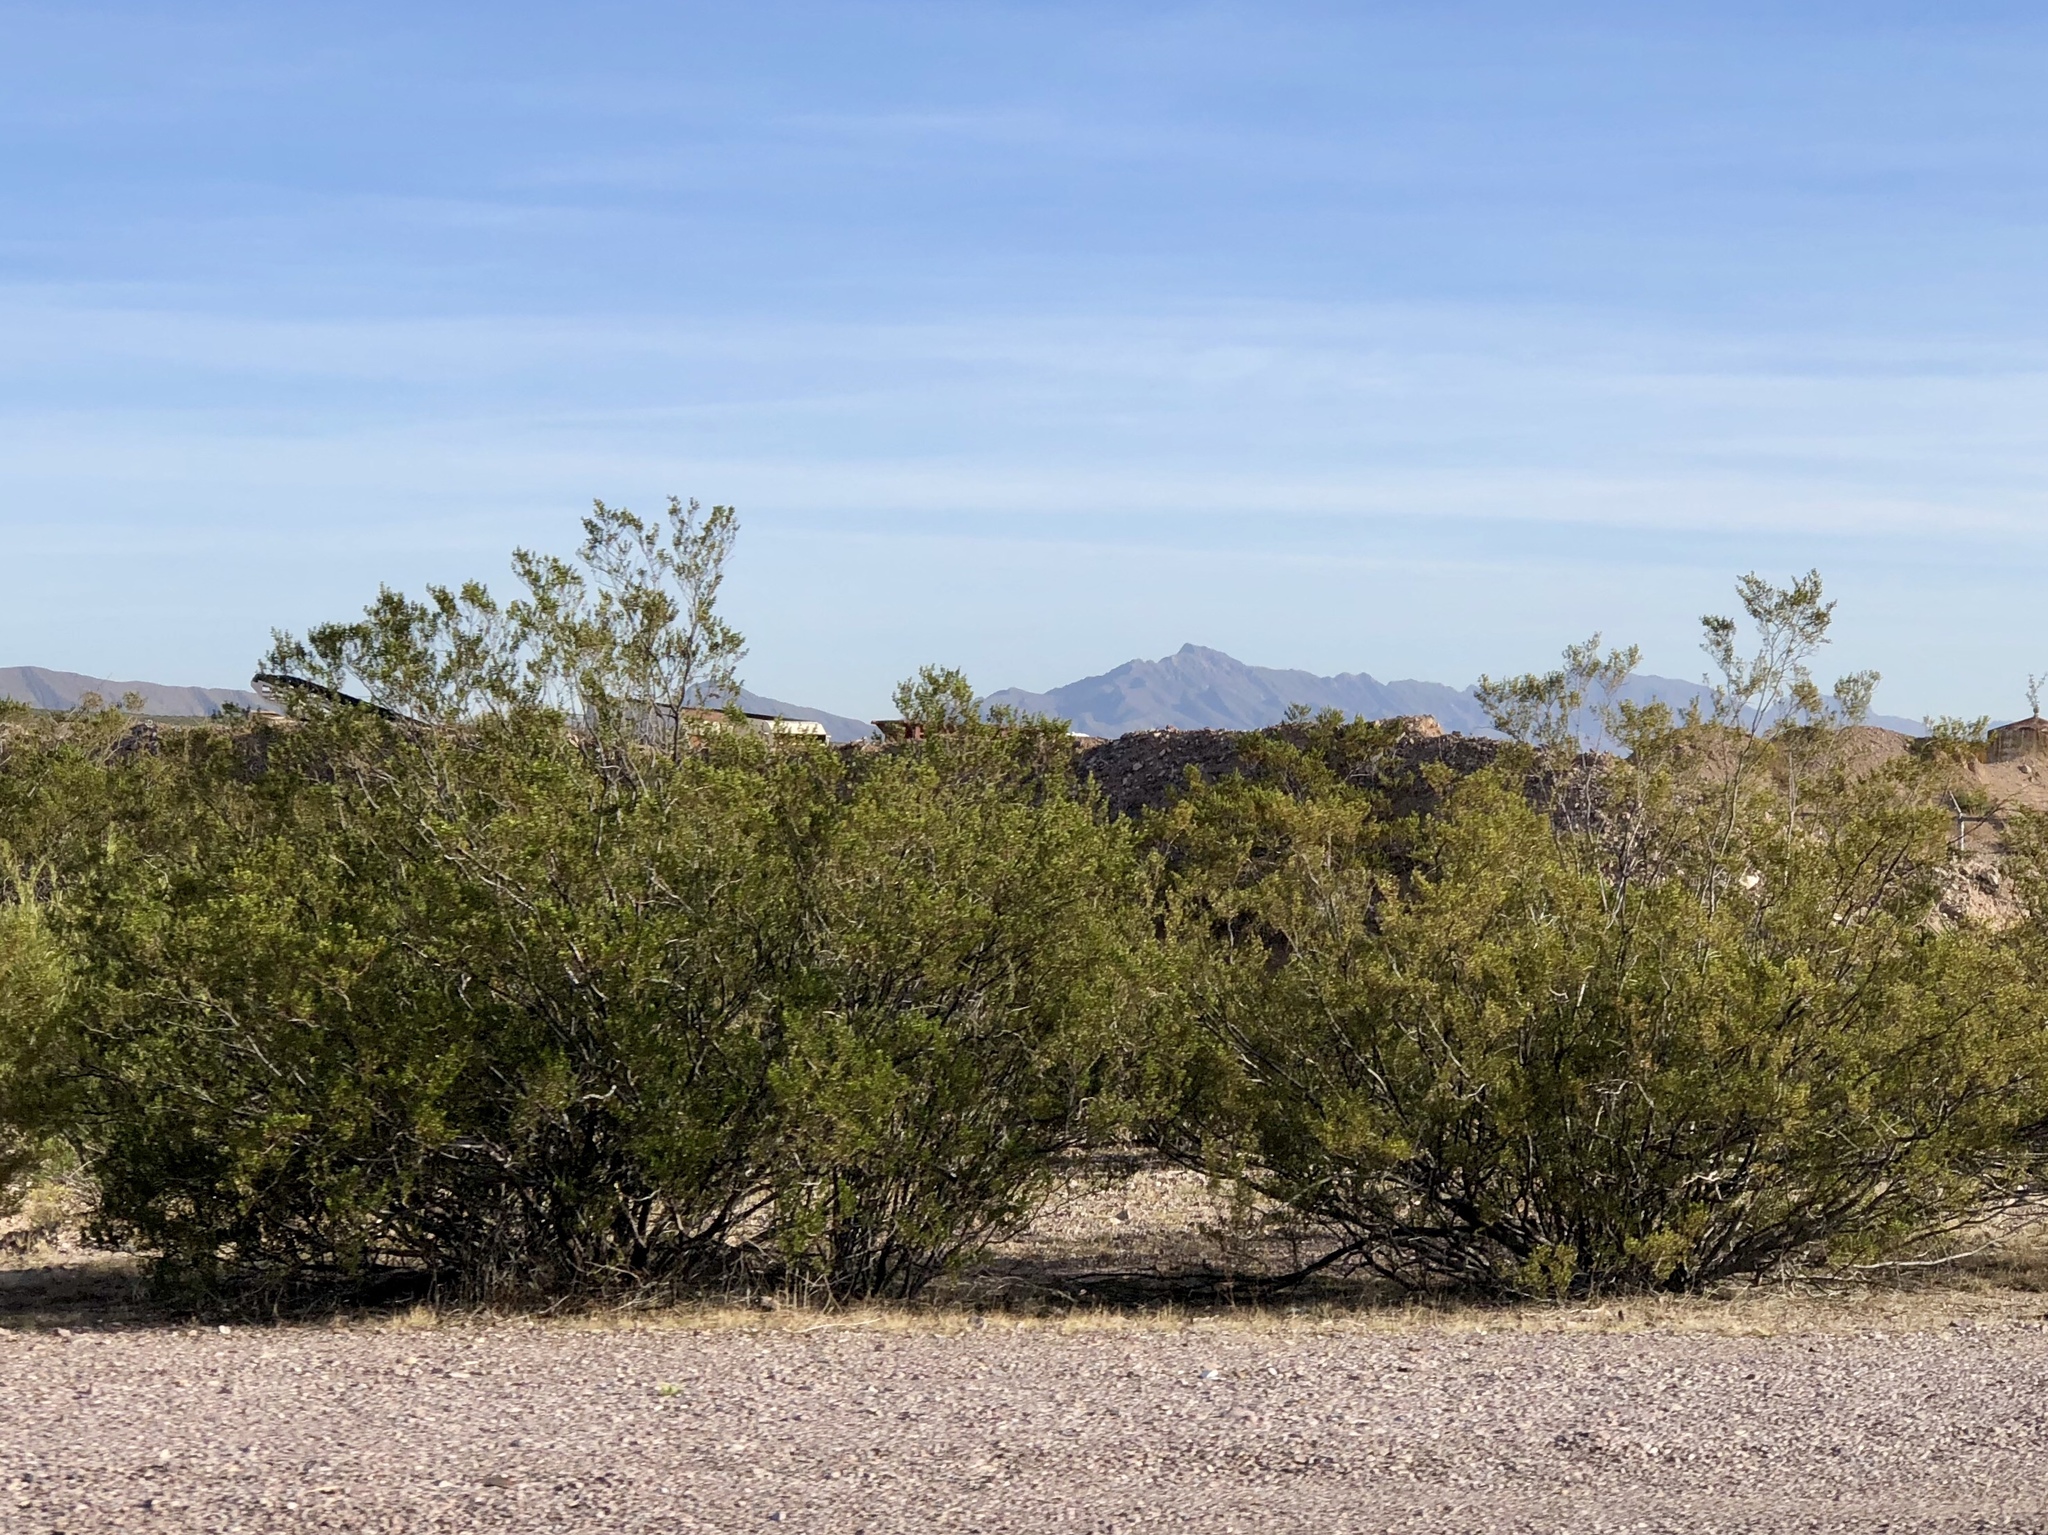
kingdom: Plantae
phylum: Tracheophyta
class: Magnoliopsida
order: Zygophyllales
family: Zygophyllaceae
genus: Larrea
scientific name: Larrea tridentata
